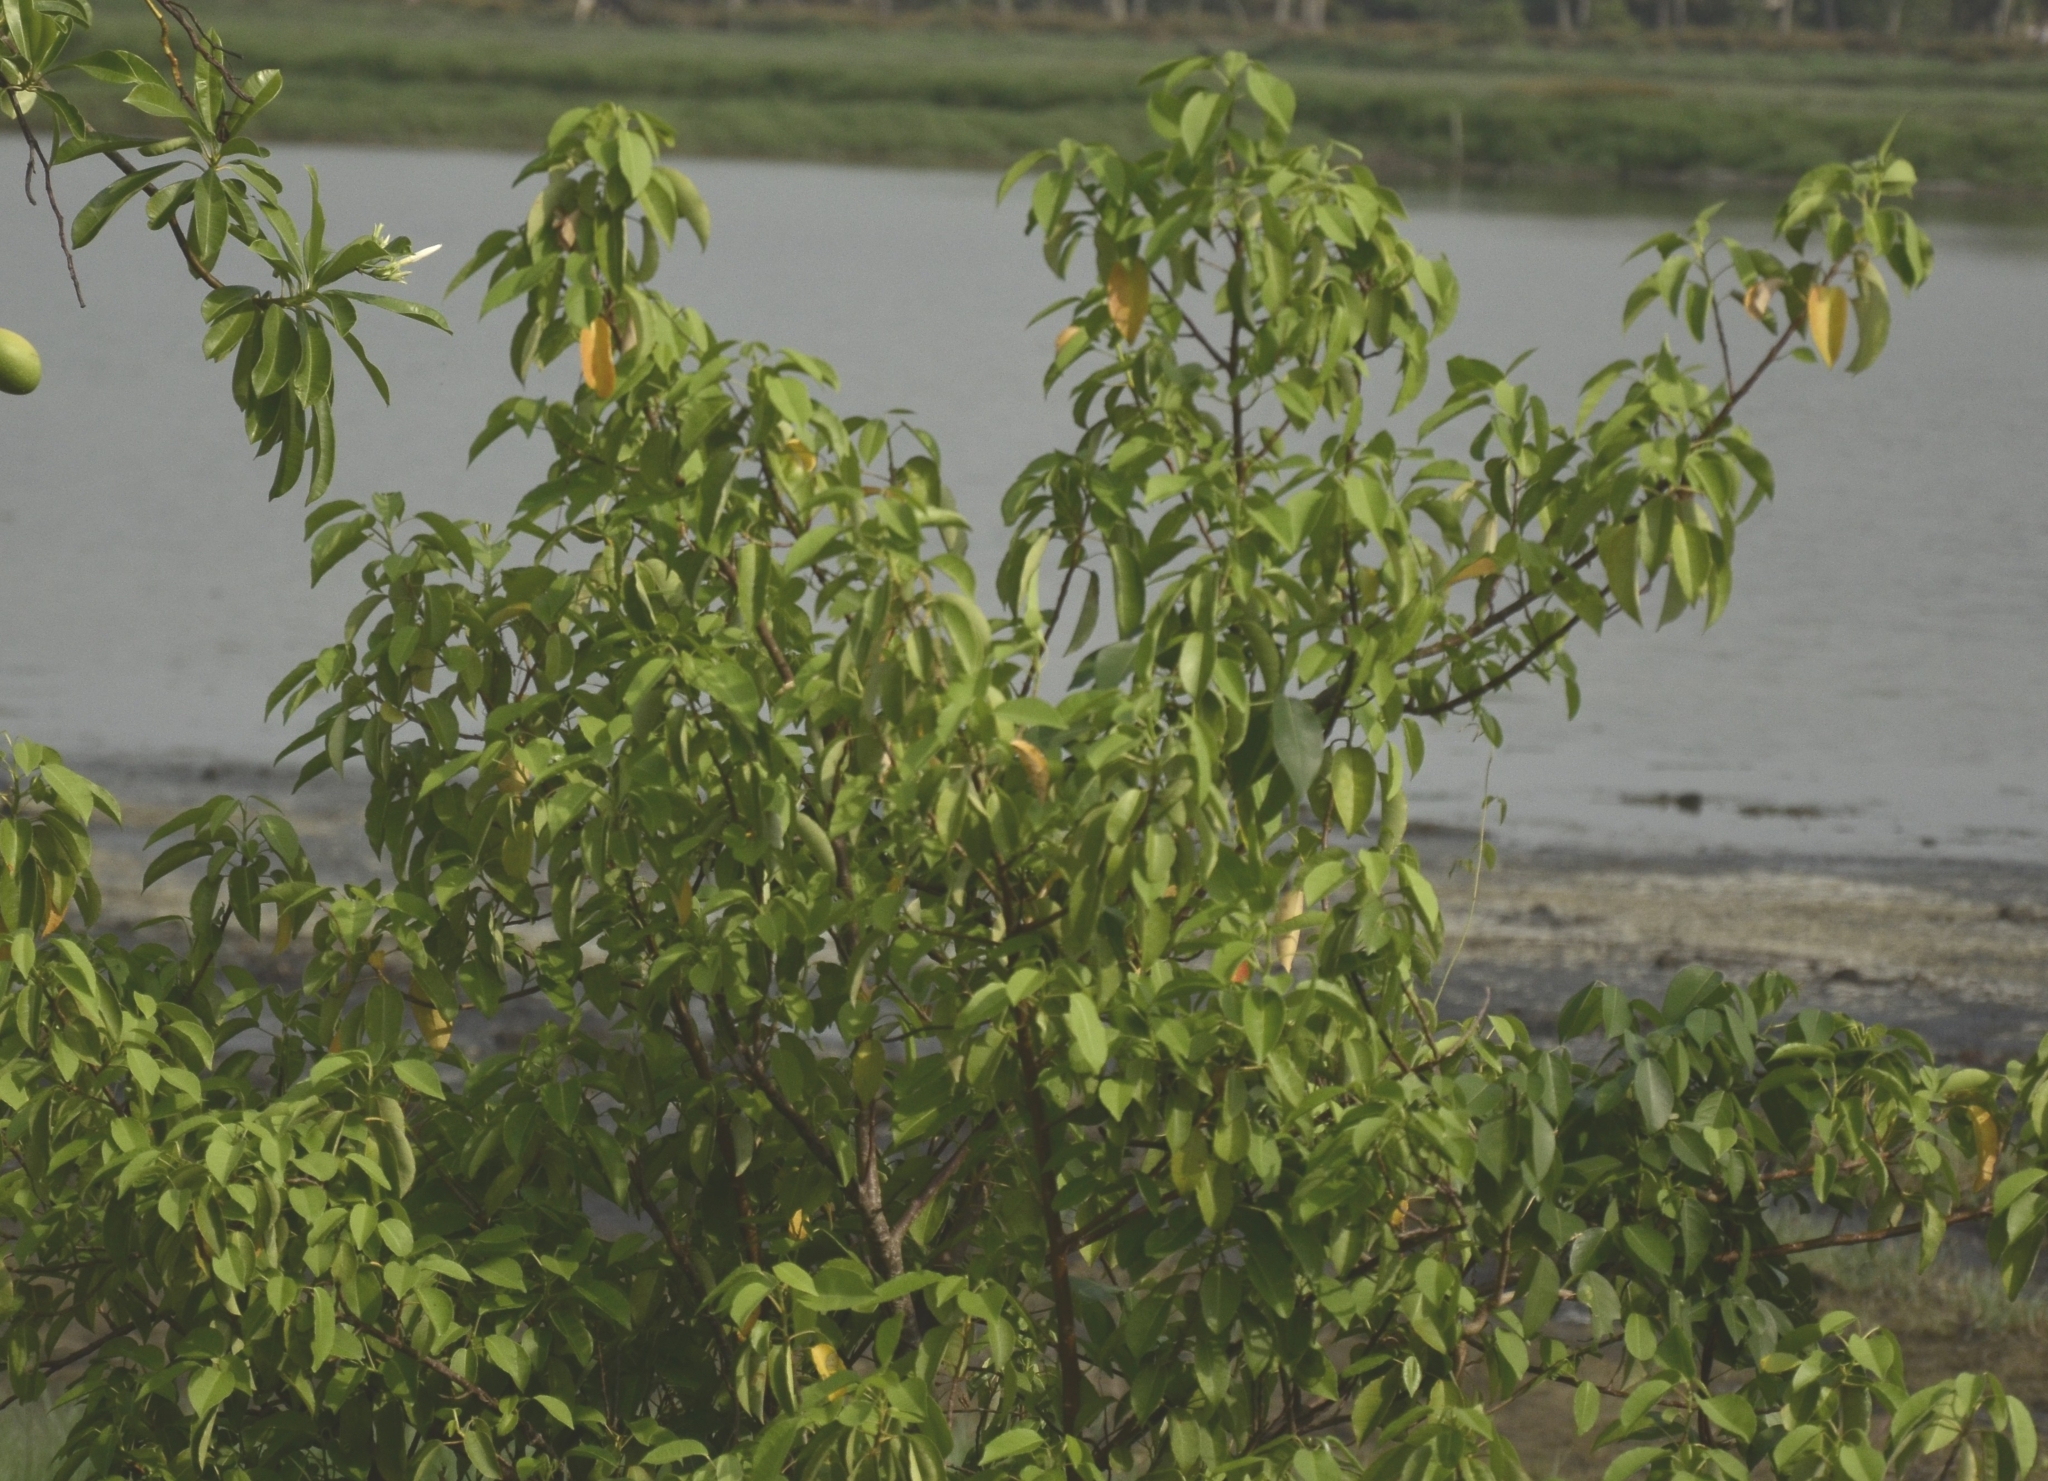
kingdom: Plantae
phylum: Tracheophyta
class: Magnoliopsida
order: Malpighiales
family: Euphorbiaceae
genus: Excoecaria
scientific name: Excoecaria agallocha
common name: River poisontree
